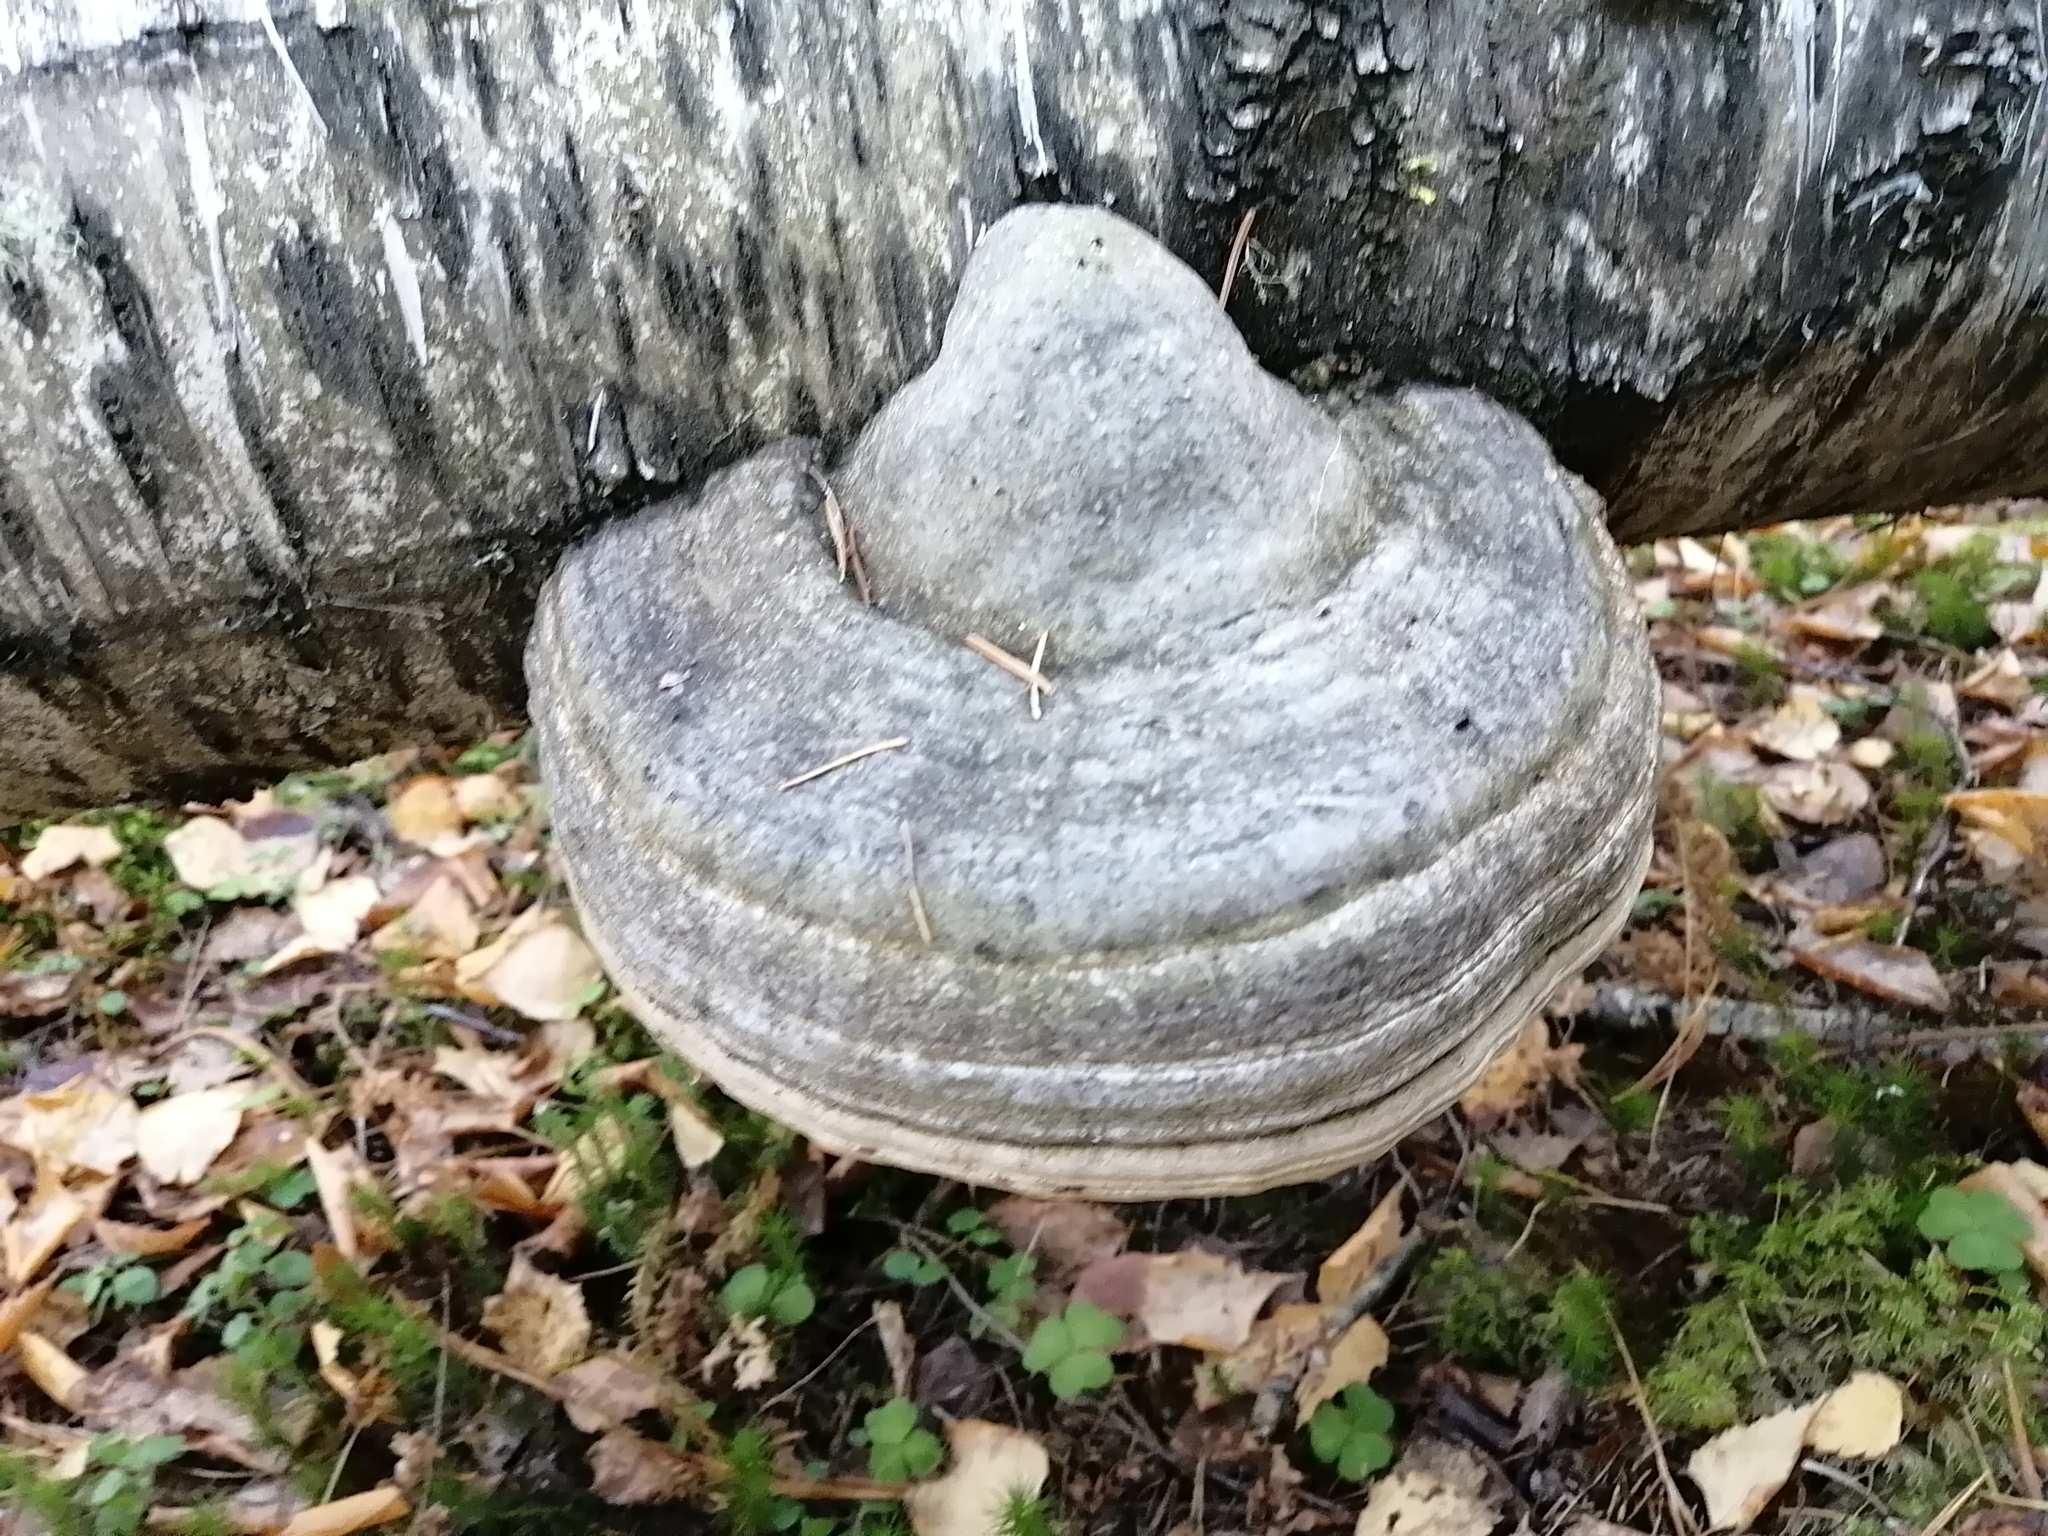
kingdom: Fungi
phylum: Basidiomycota
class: Agaricomycetes
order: Polyporales
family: Polyporaceae
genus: Fomes
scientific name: Fomes fomentarius
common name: Hoof fungus
